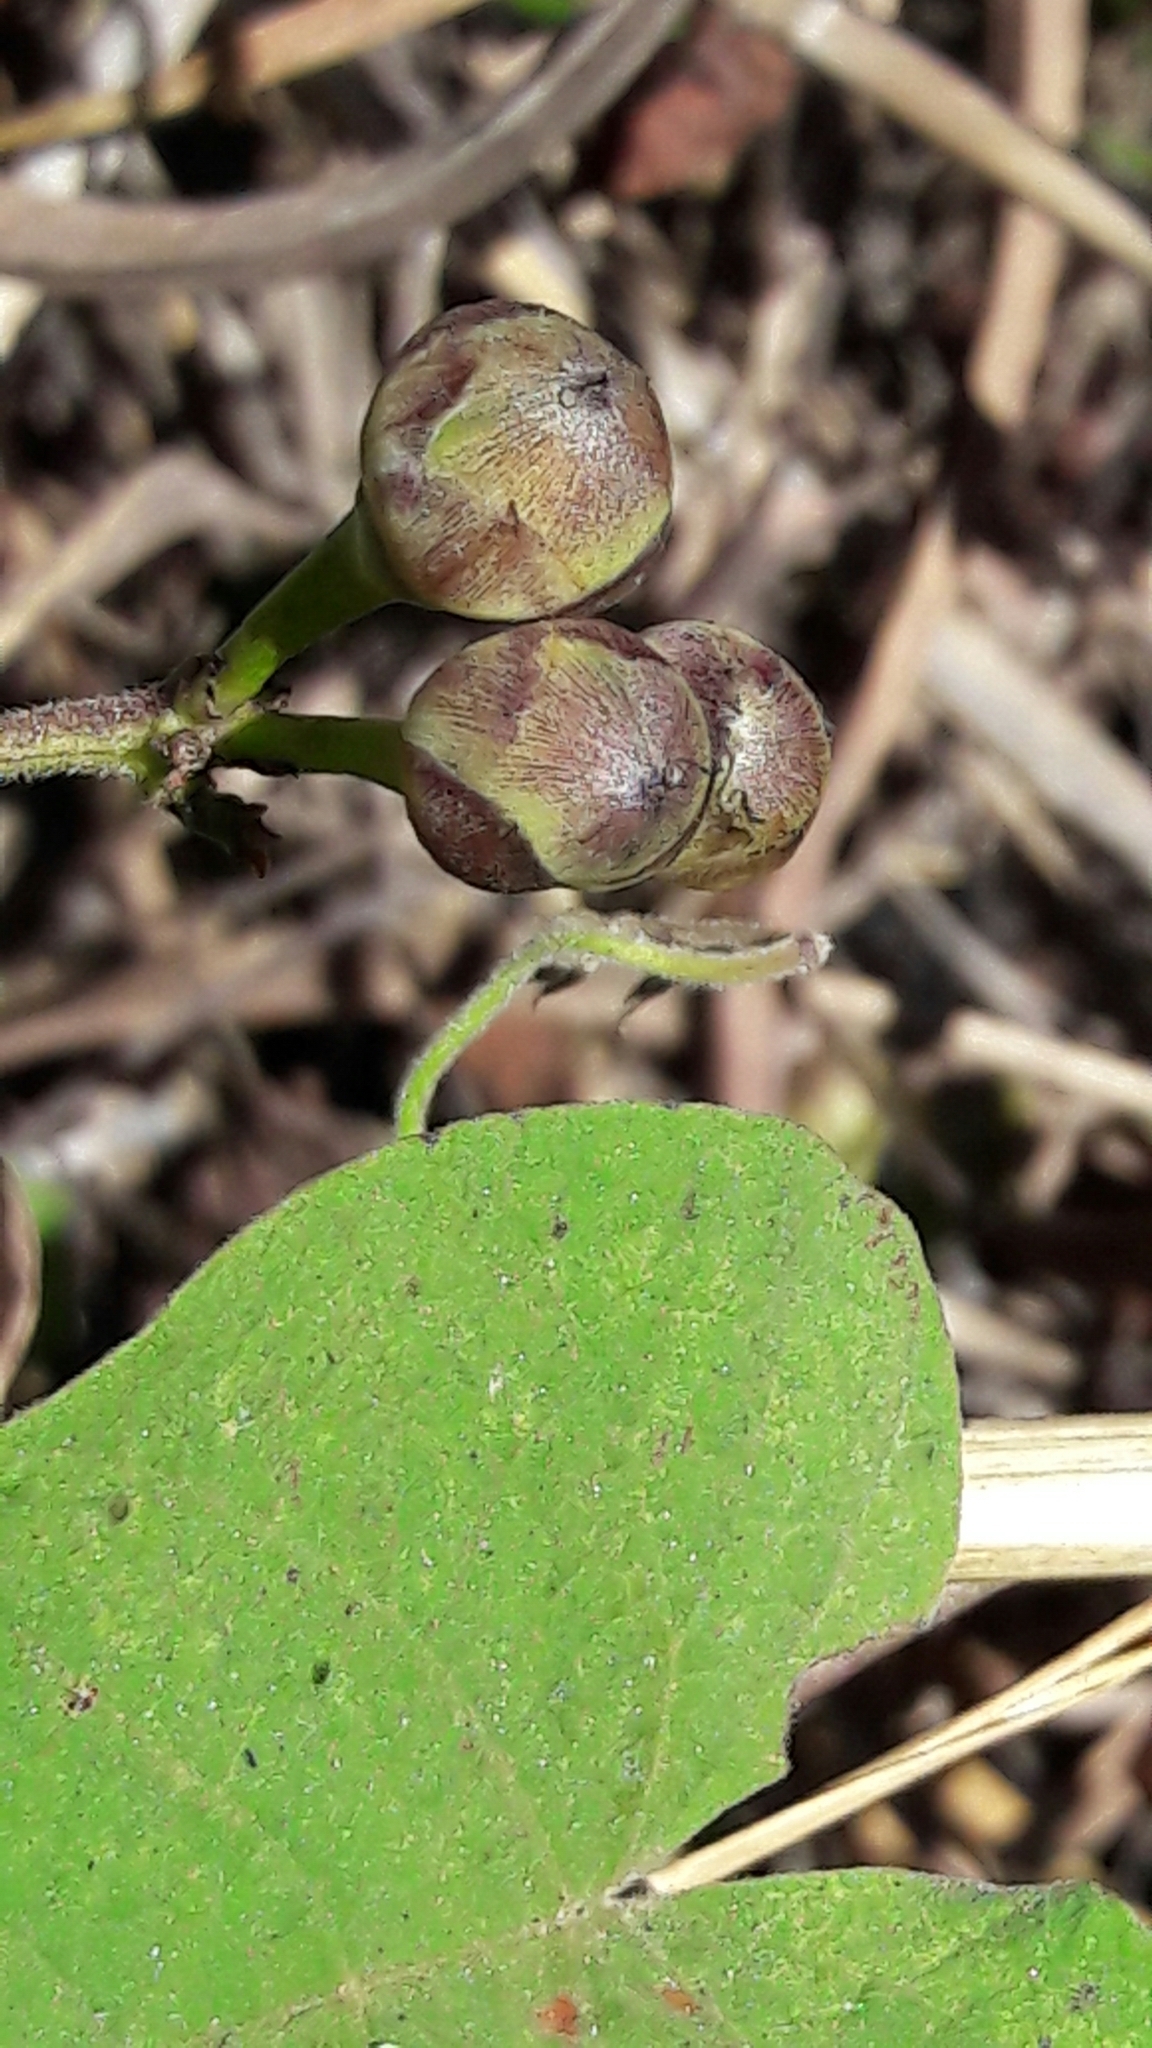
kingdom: Plantae
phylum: Tracheophyta
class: Magnoliopsida
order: Solanales
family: Convolvulaceae
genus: Camonea
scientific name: Camonea umbellata
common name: Hogvine
